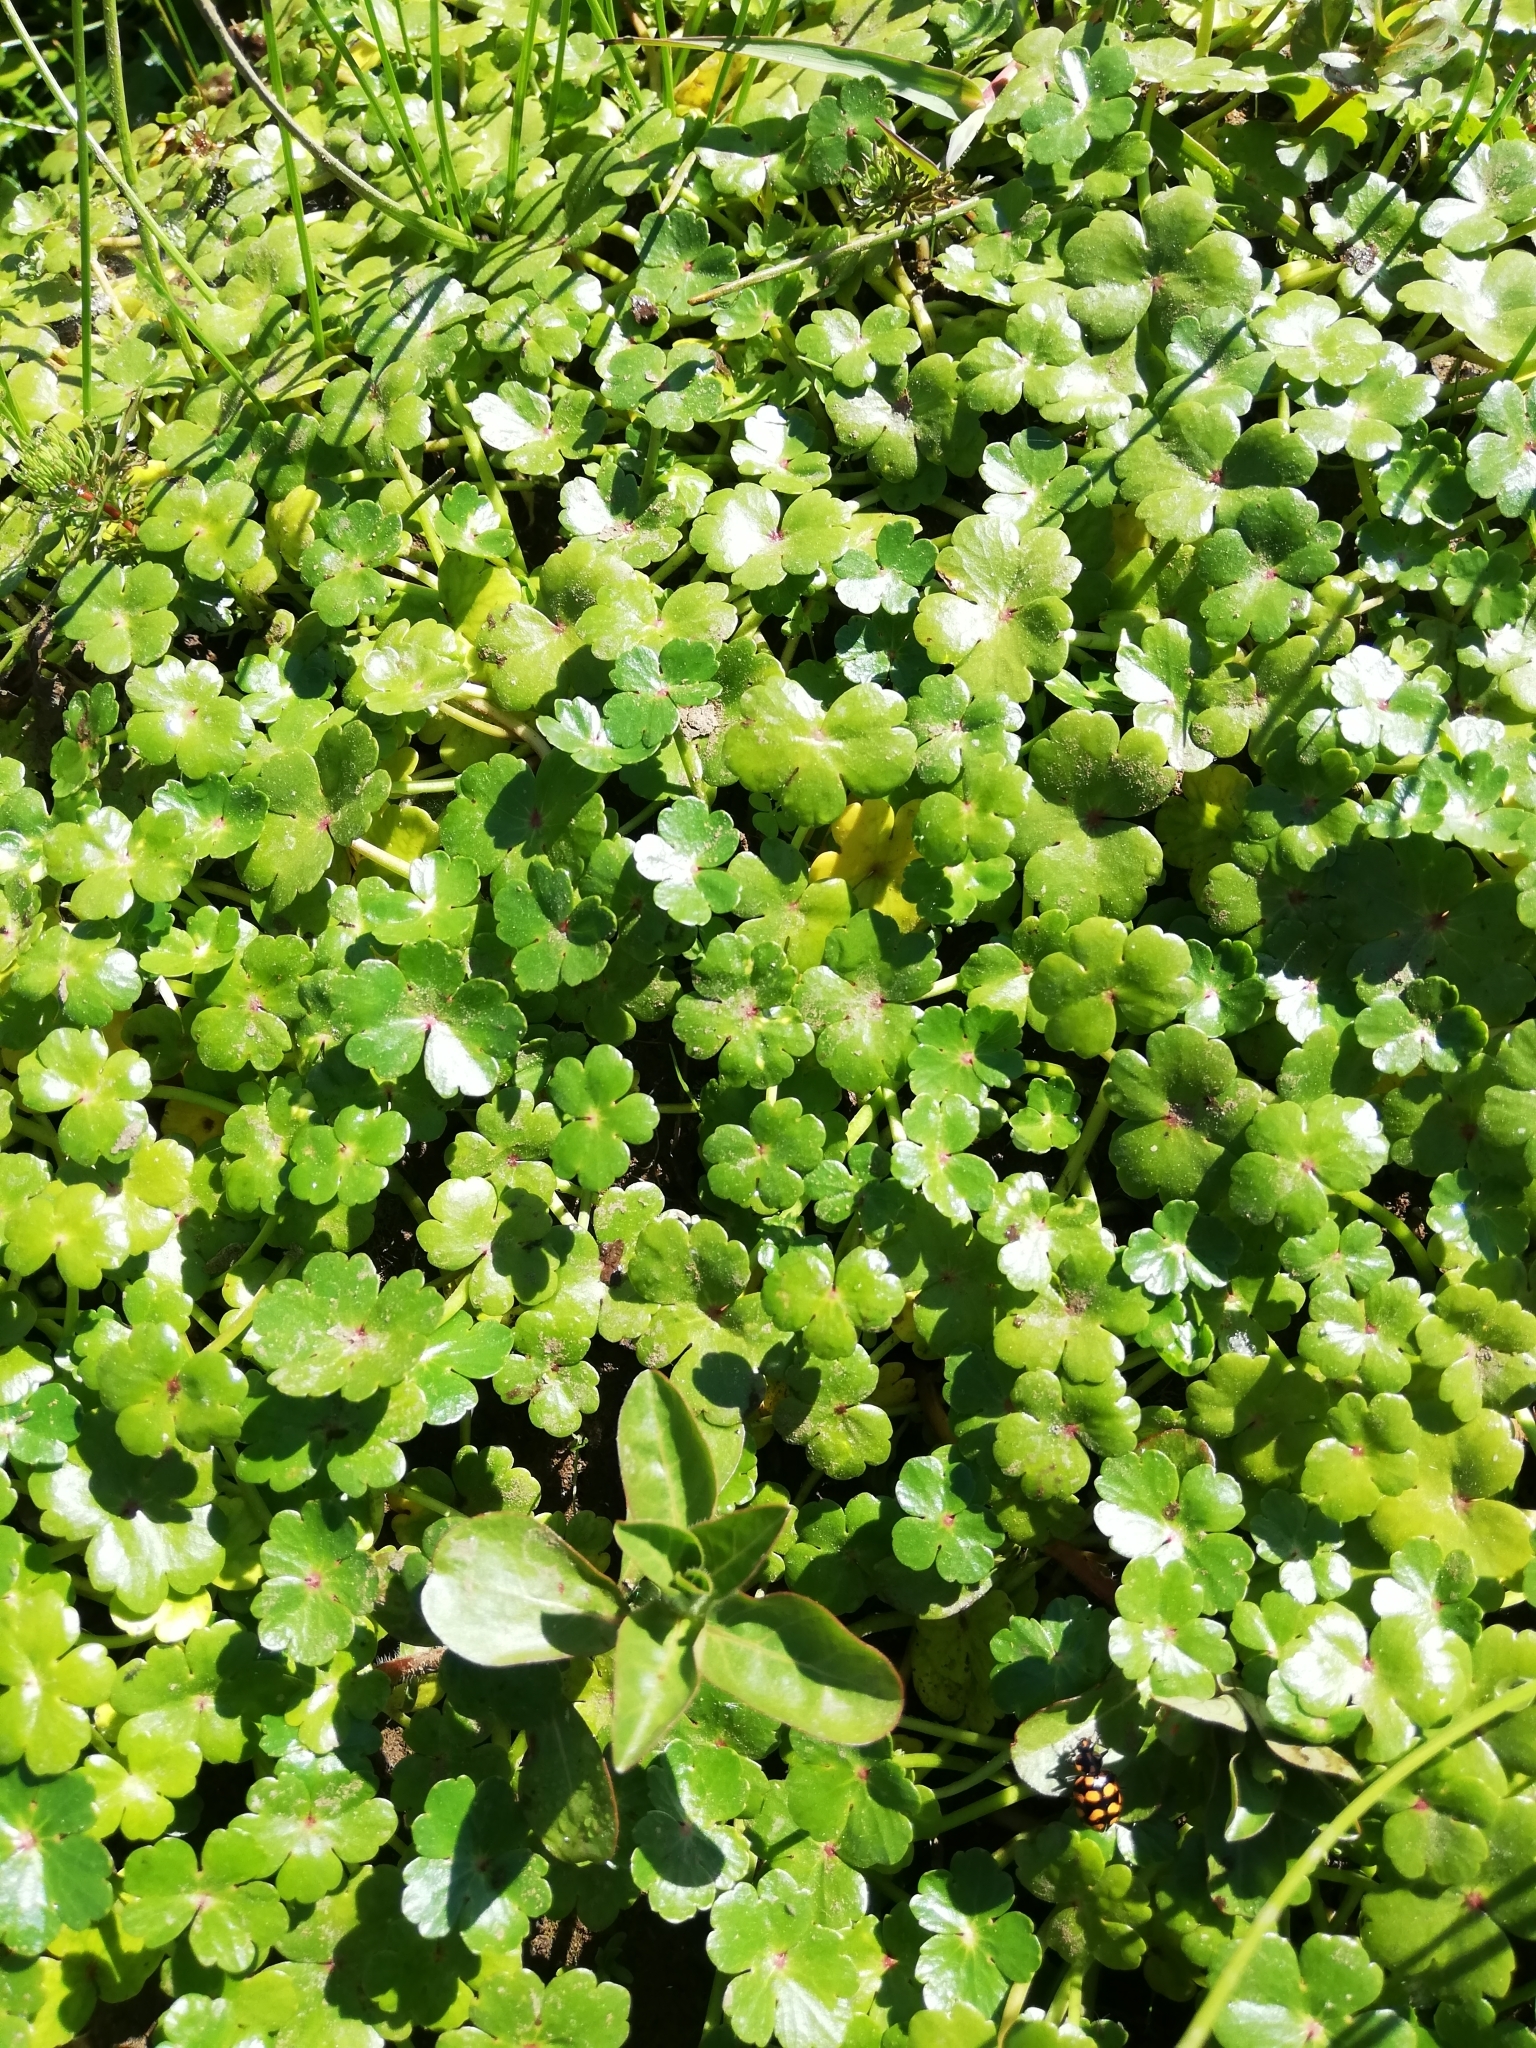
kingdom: Plantae
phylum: Tracheophyta
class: Magnoliopsida
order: Apiales
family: Araliaceae
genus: Hydrocotyle
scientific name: Hydrocotyle ranunculoides
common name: Floating pennywort
